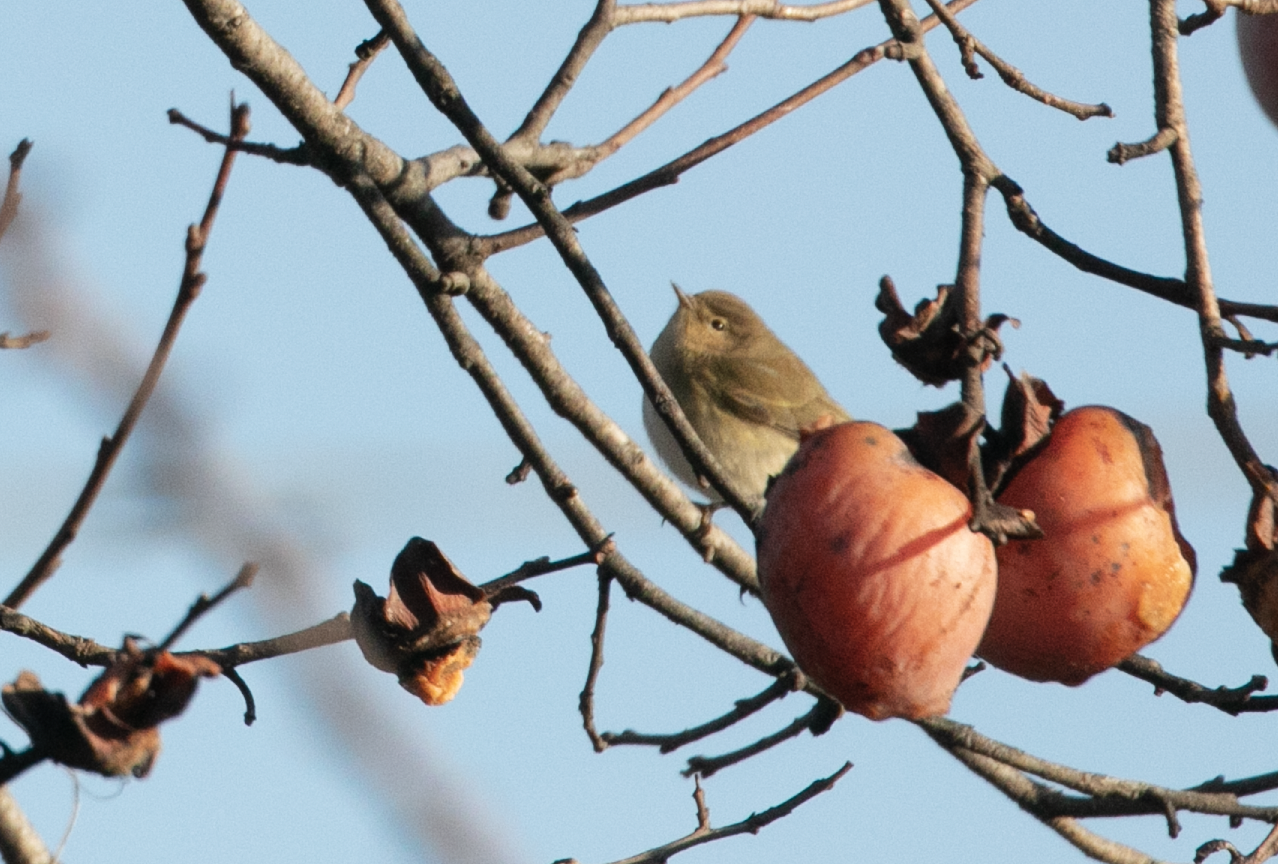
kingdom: Animalia
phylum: Chordata
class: Aves
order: Passeriformes
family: Phylloscopidae
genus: Phylloscopus
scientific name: Phylloscopus collybita
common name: Common chiffchaff
